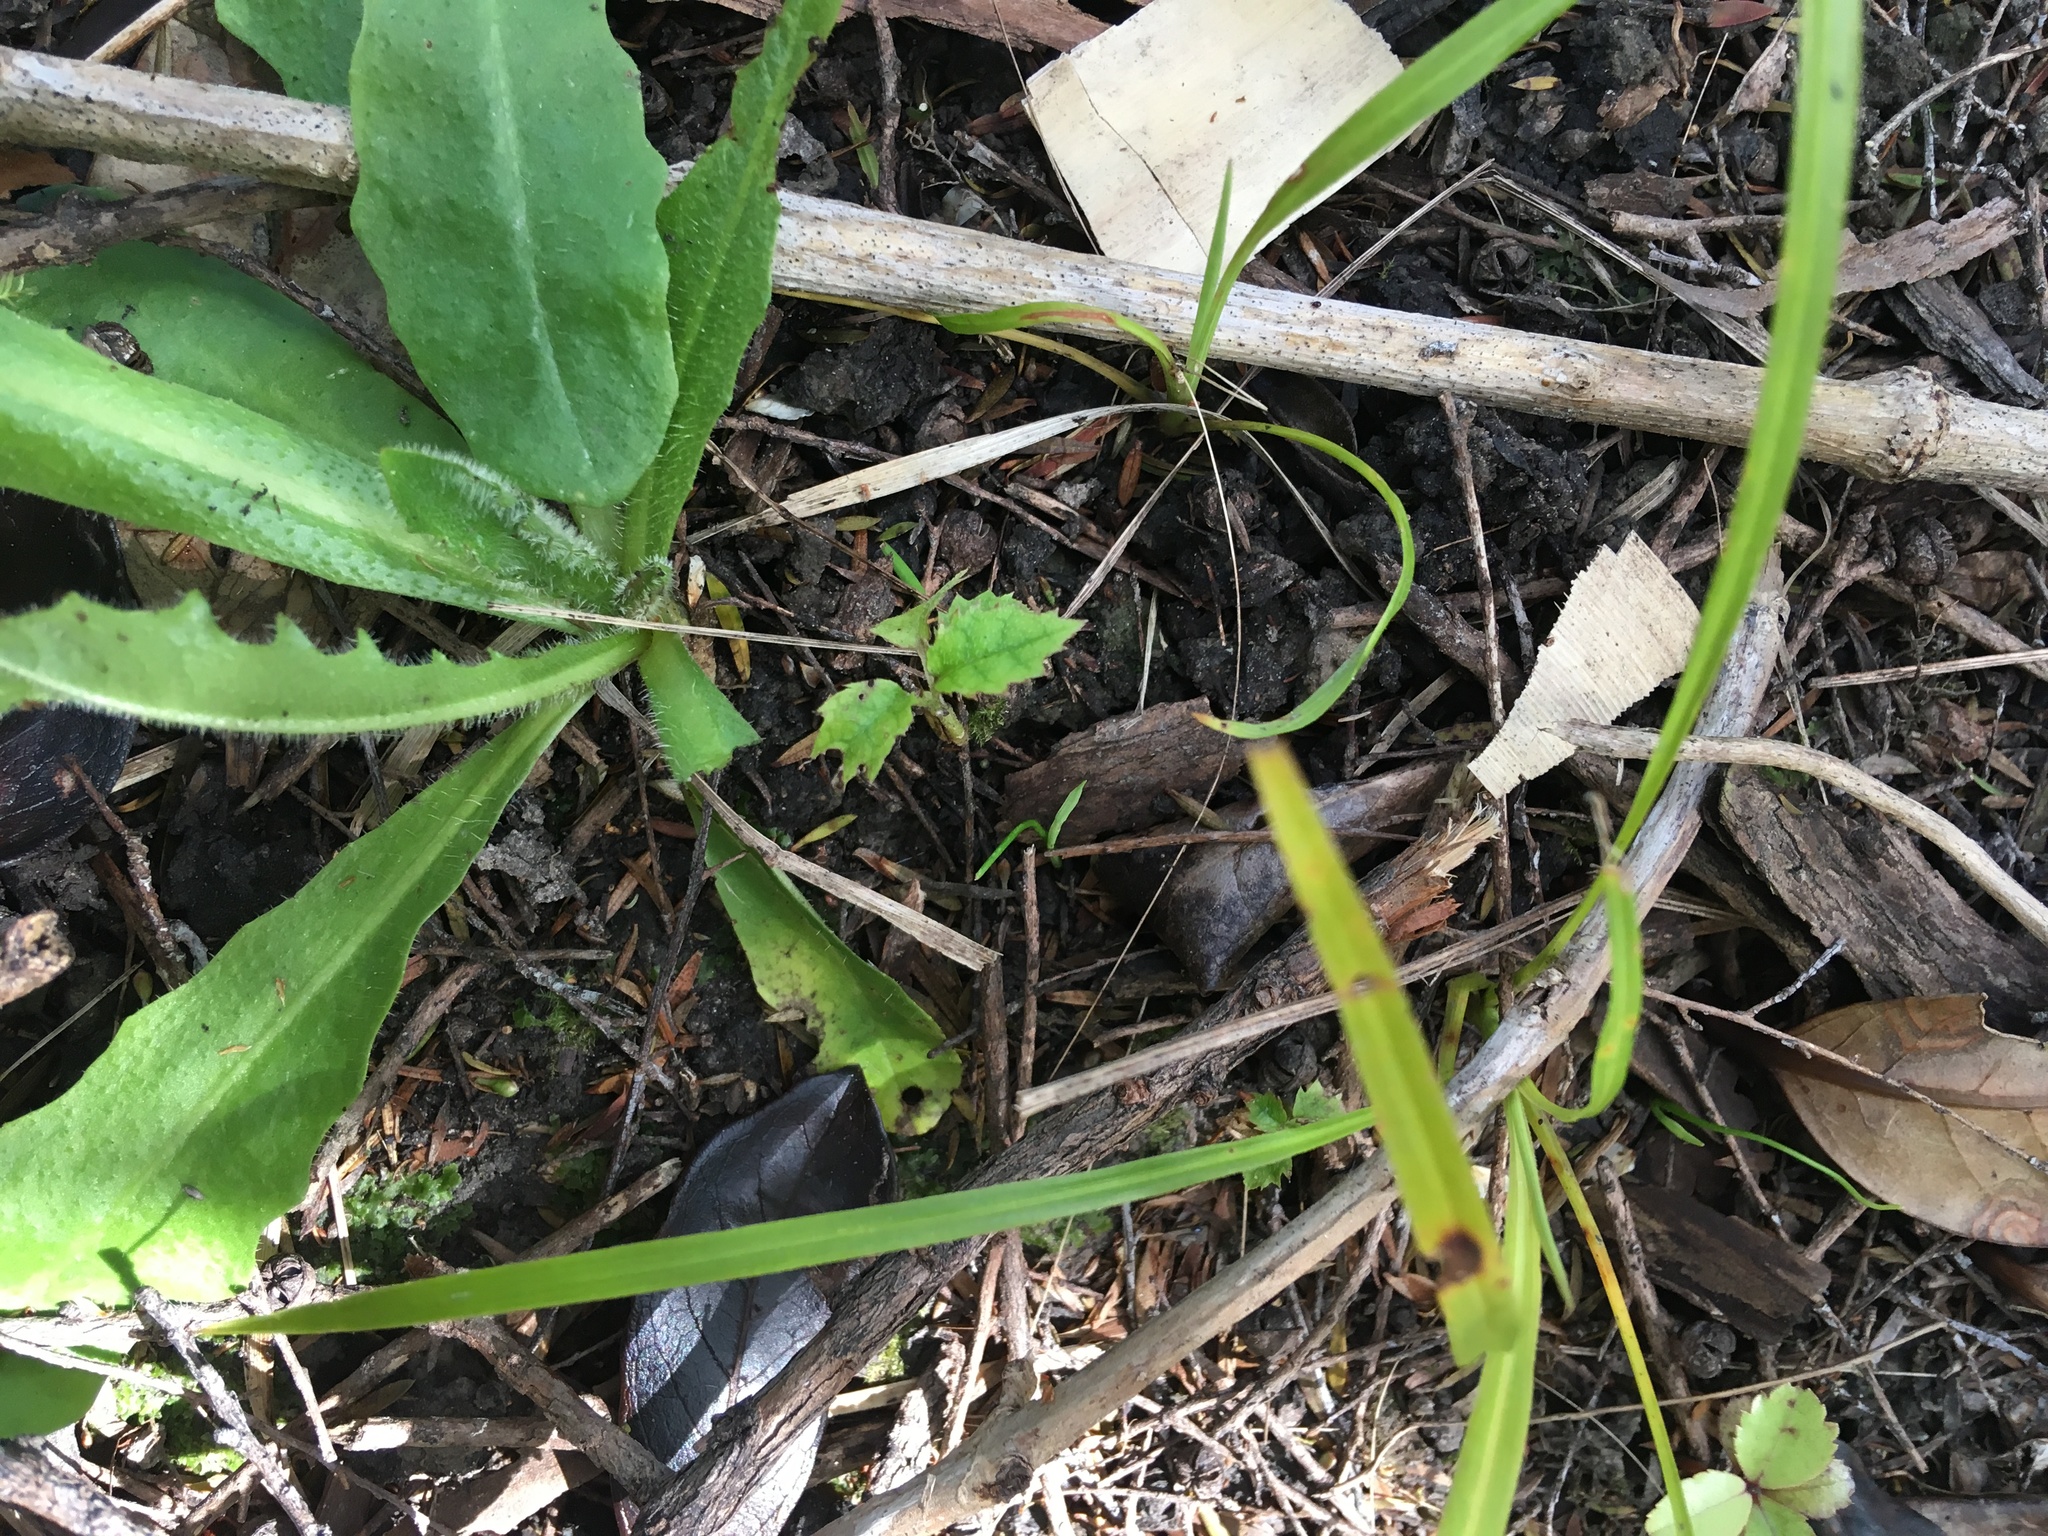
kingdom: Plantae
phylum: Tracheophyta
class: Magnoliopsida
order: Asterales
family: Asteraceae
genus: Hypochaeris
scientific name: Hypochaeris radicata
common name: Flatweed
